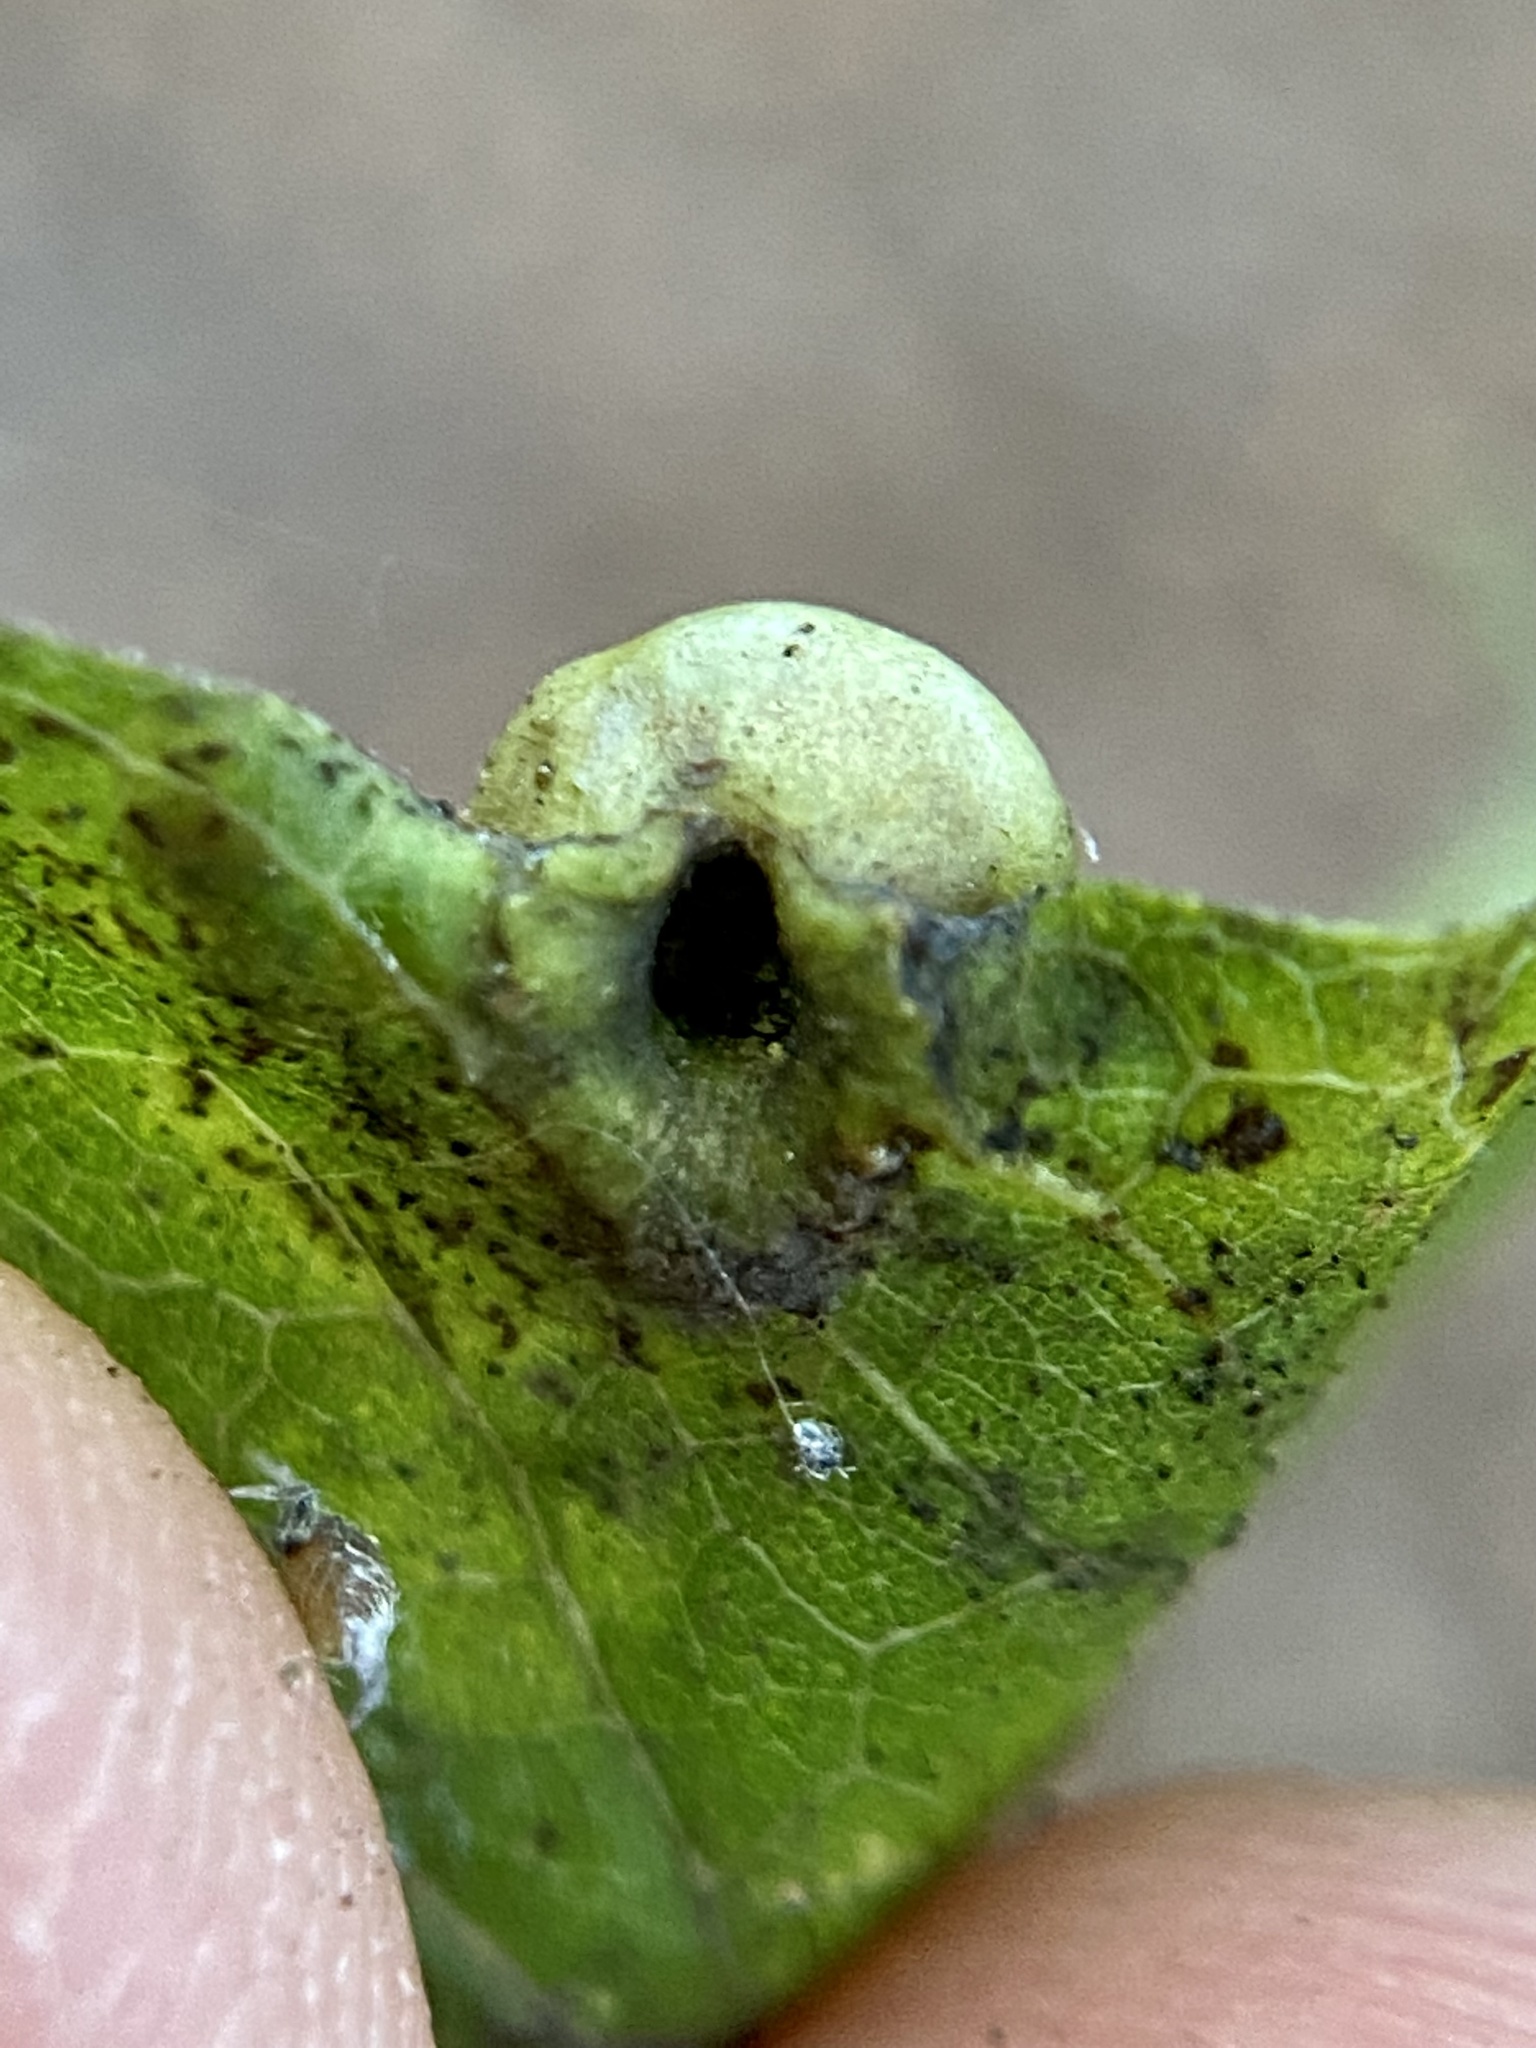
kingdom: Animalia
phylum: Arthropoda
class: Insecta
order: Hemiptera
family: Aphalaridae
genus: Pachypsylla
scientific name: Pachypsylla celtidismamma
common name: Hackberry nipplegall psyllid
